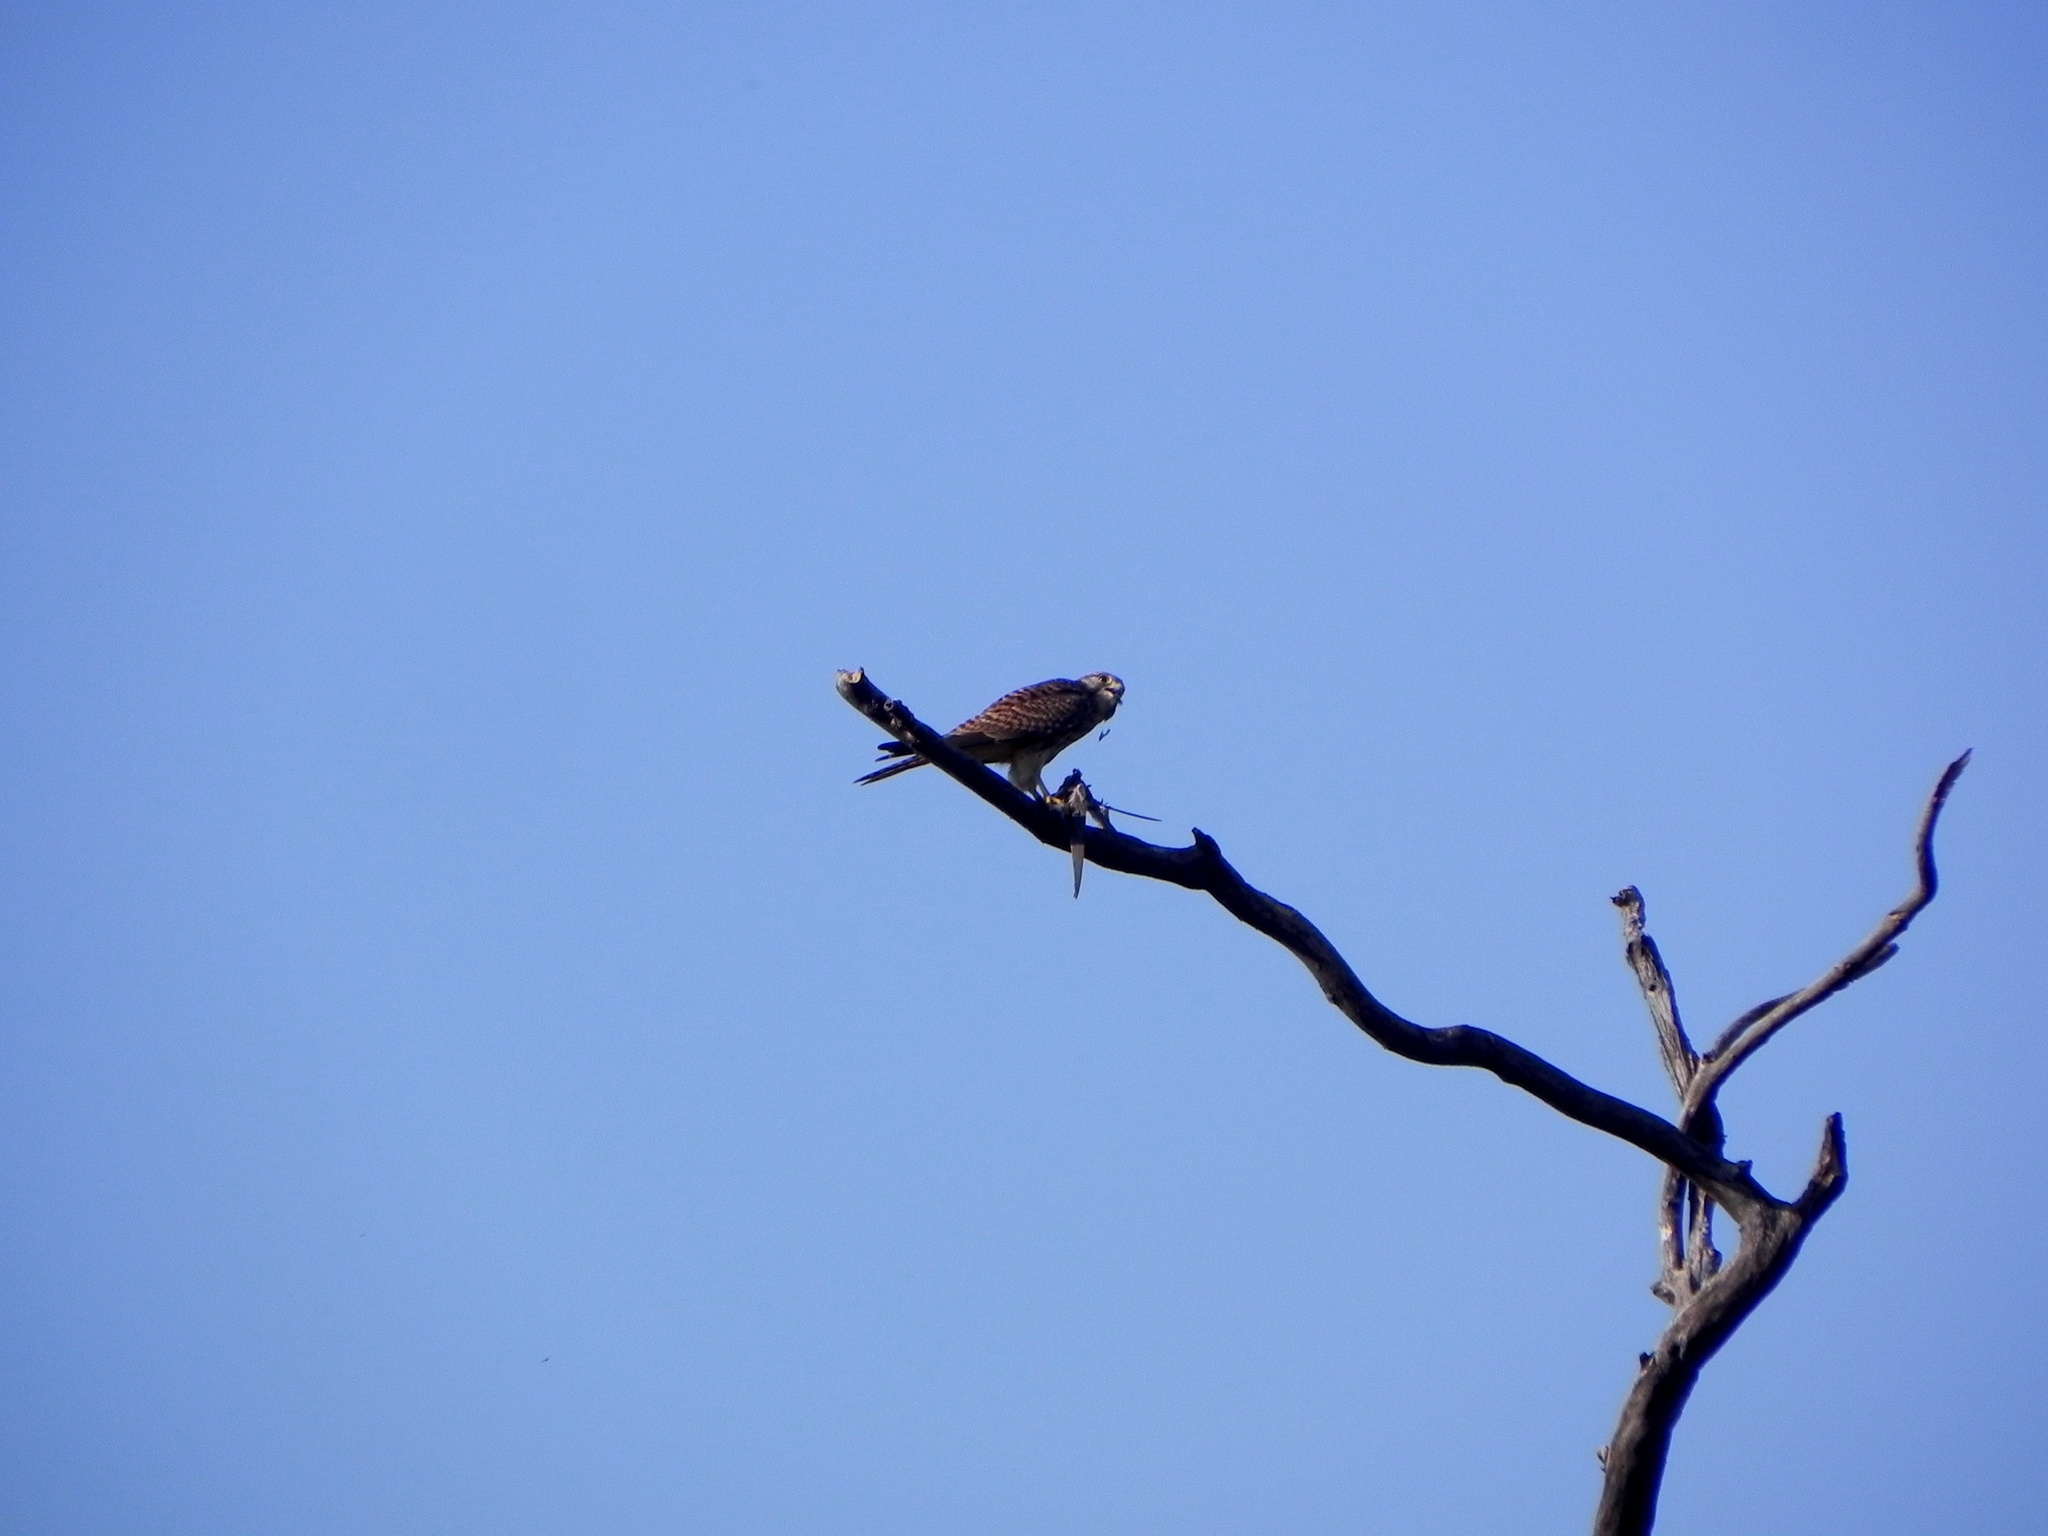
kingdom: Animalia
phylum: Chordata
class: Aves
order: Falconiformes
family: Falconidae
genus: Falco
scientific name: Falco tinnunculus
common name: Common kestrel
